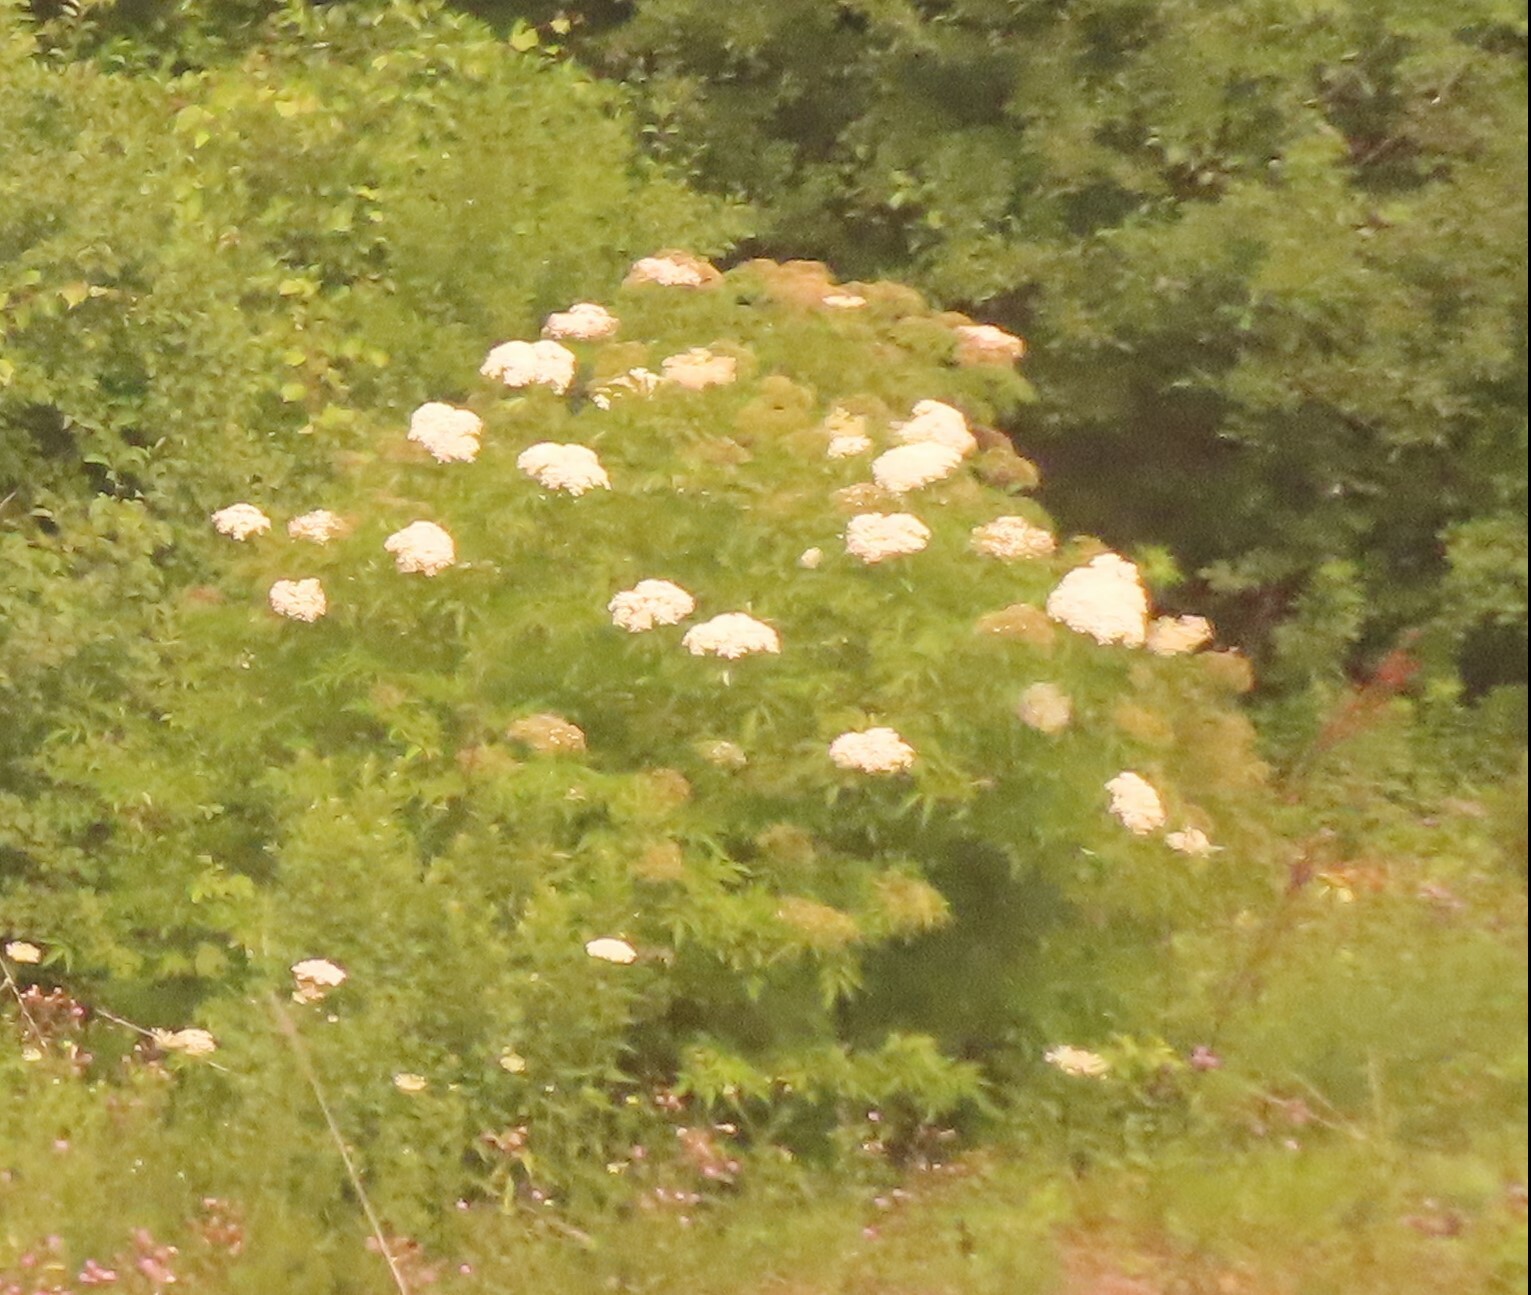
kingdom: Plantae
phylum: Tracheophyta
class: Magnoliopsida
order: Dipsacales
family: Viburnaceae
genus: Sambucus
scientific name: Sambucus canadensis
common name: American elder
